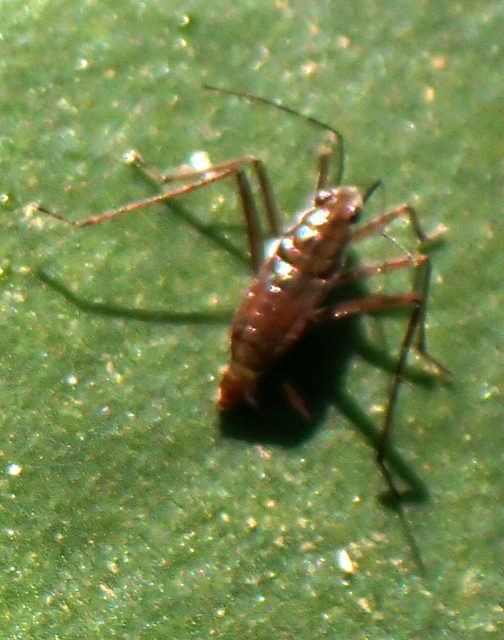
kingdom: Animalia
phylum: Arthropoda
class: Insecta
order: Hemiptera
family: Mesoveliidae
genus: Mesovelia
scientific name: Mesovelia
